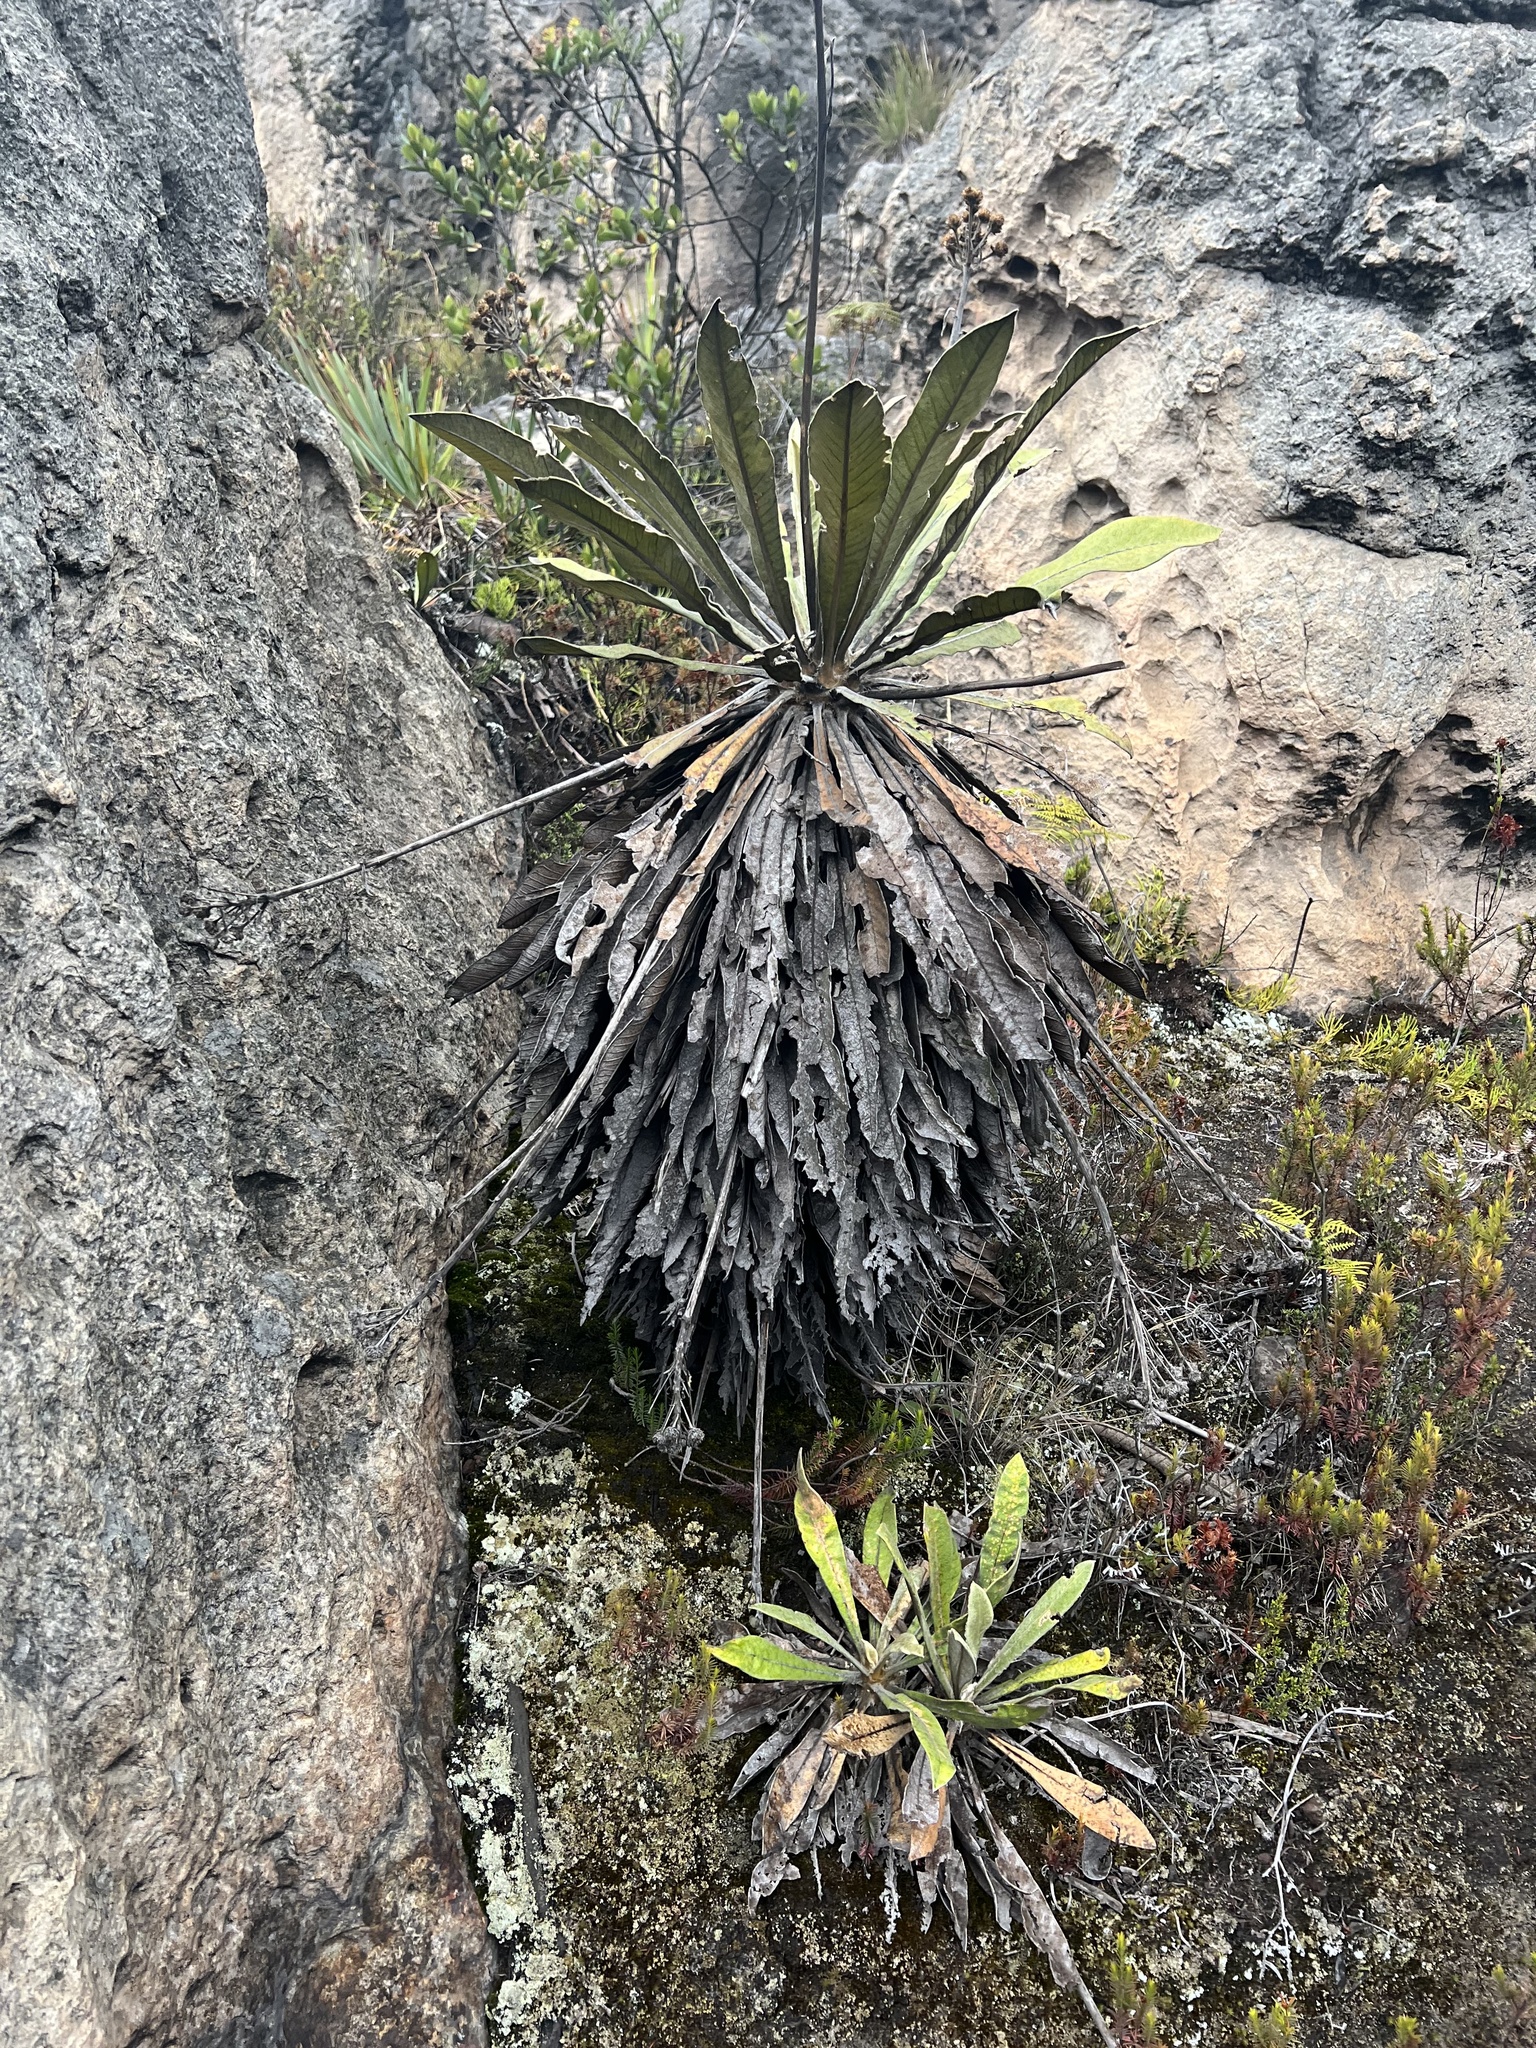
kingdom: Plantae
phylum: Tracheophyta
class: Magnoliopsida
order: Asterales
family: Asteraceae
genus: Espeletia
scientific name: Espeletia corymbosa
